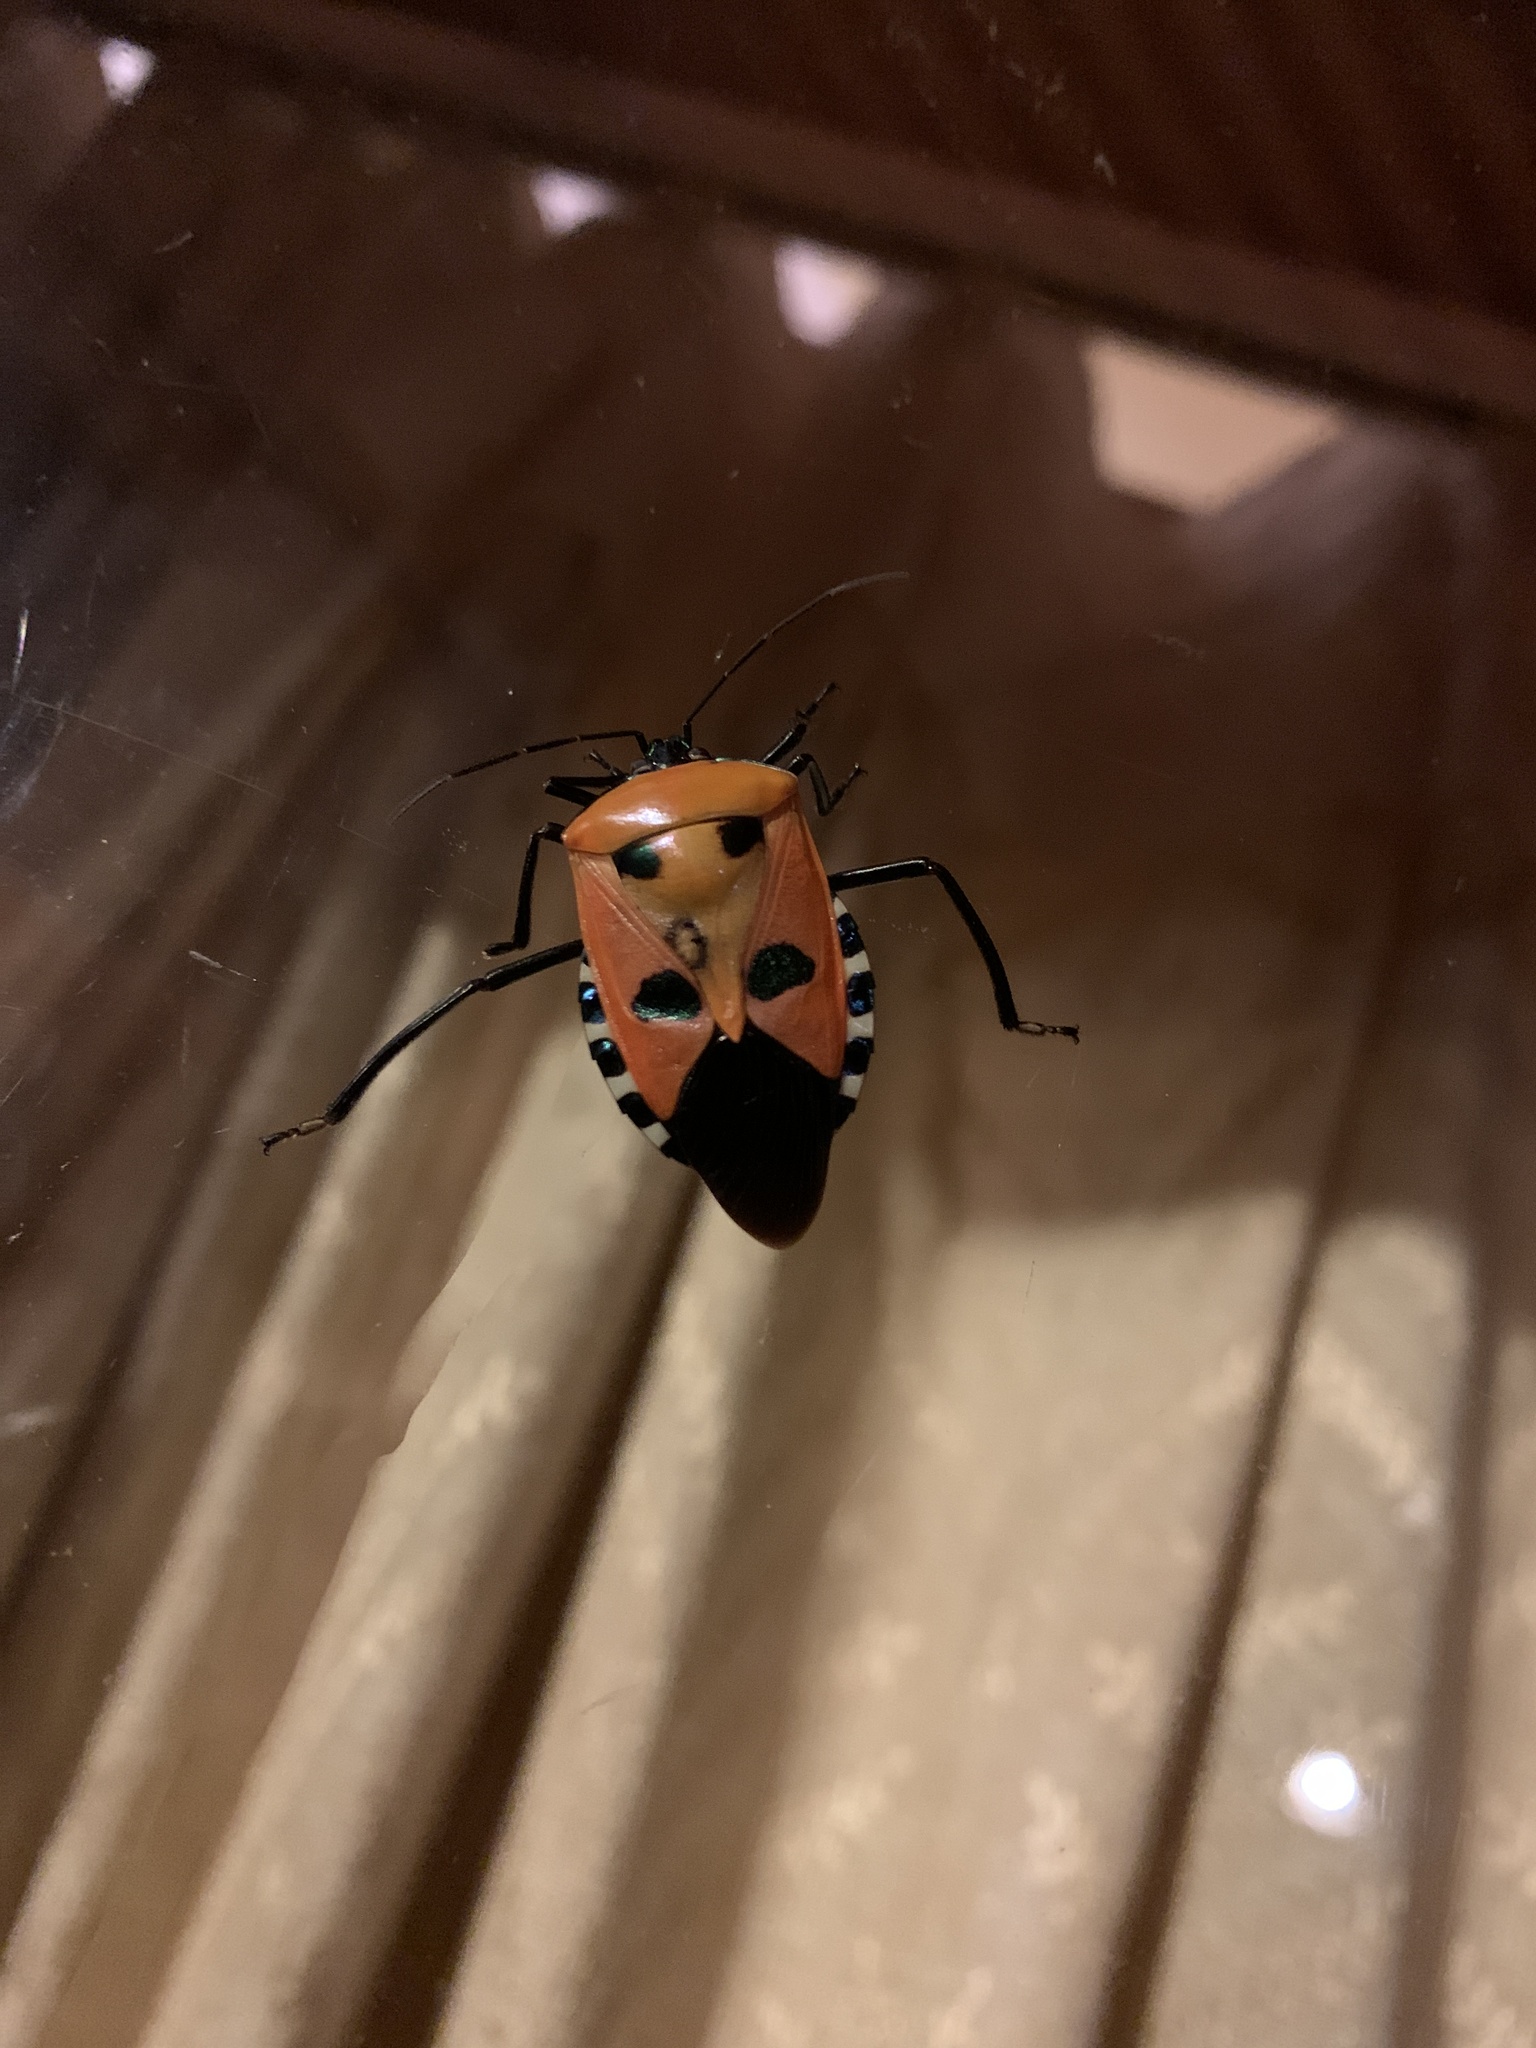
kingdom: Animalia
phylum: Arthropoda
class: Insecta
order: Hemiptera
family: Pentatomidae
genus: Catacanthus
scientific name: Catacanthus incarnatus
